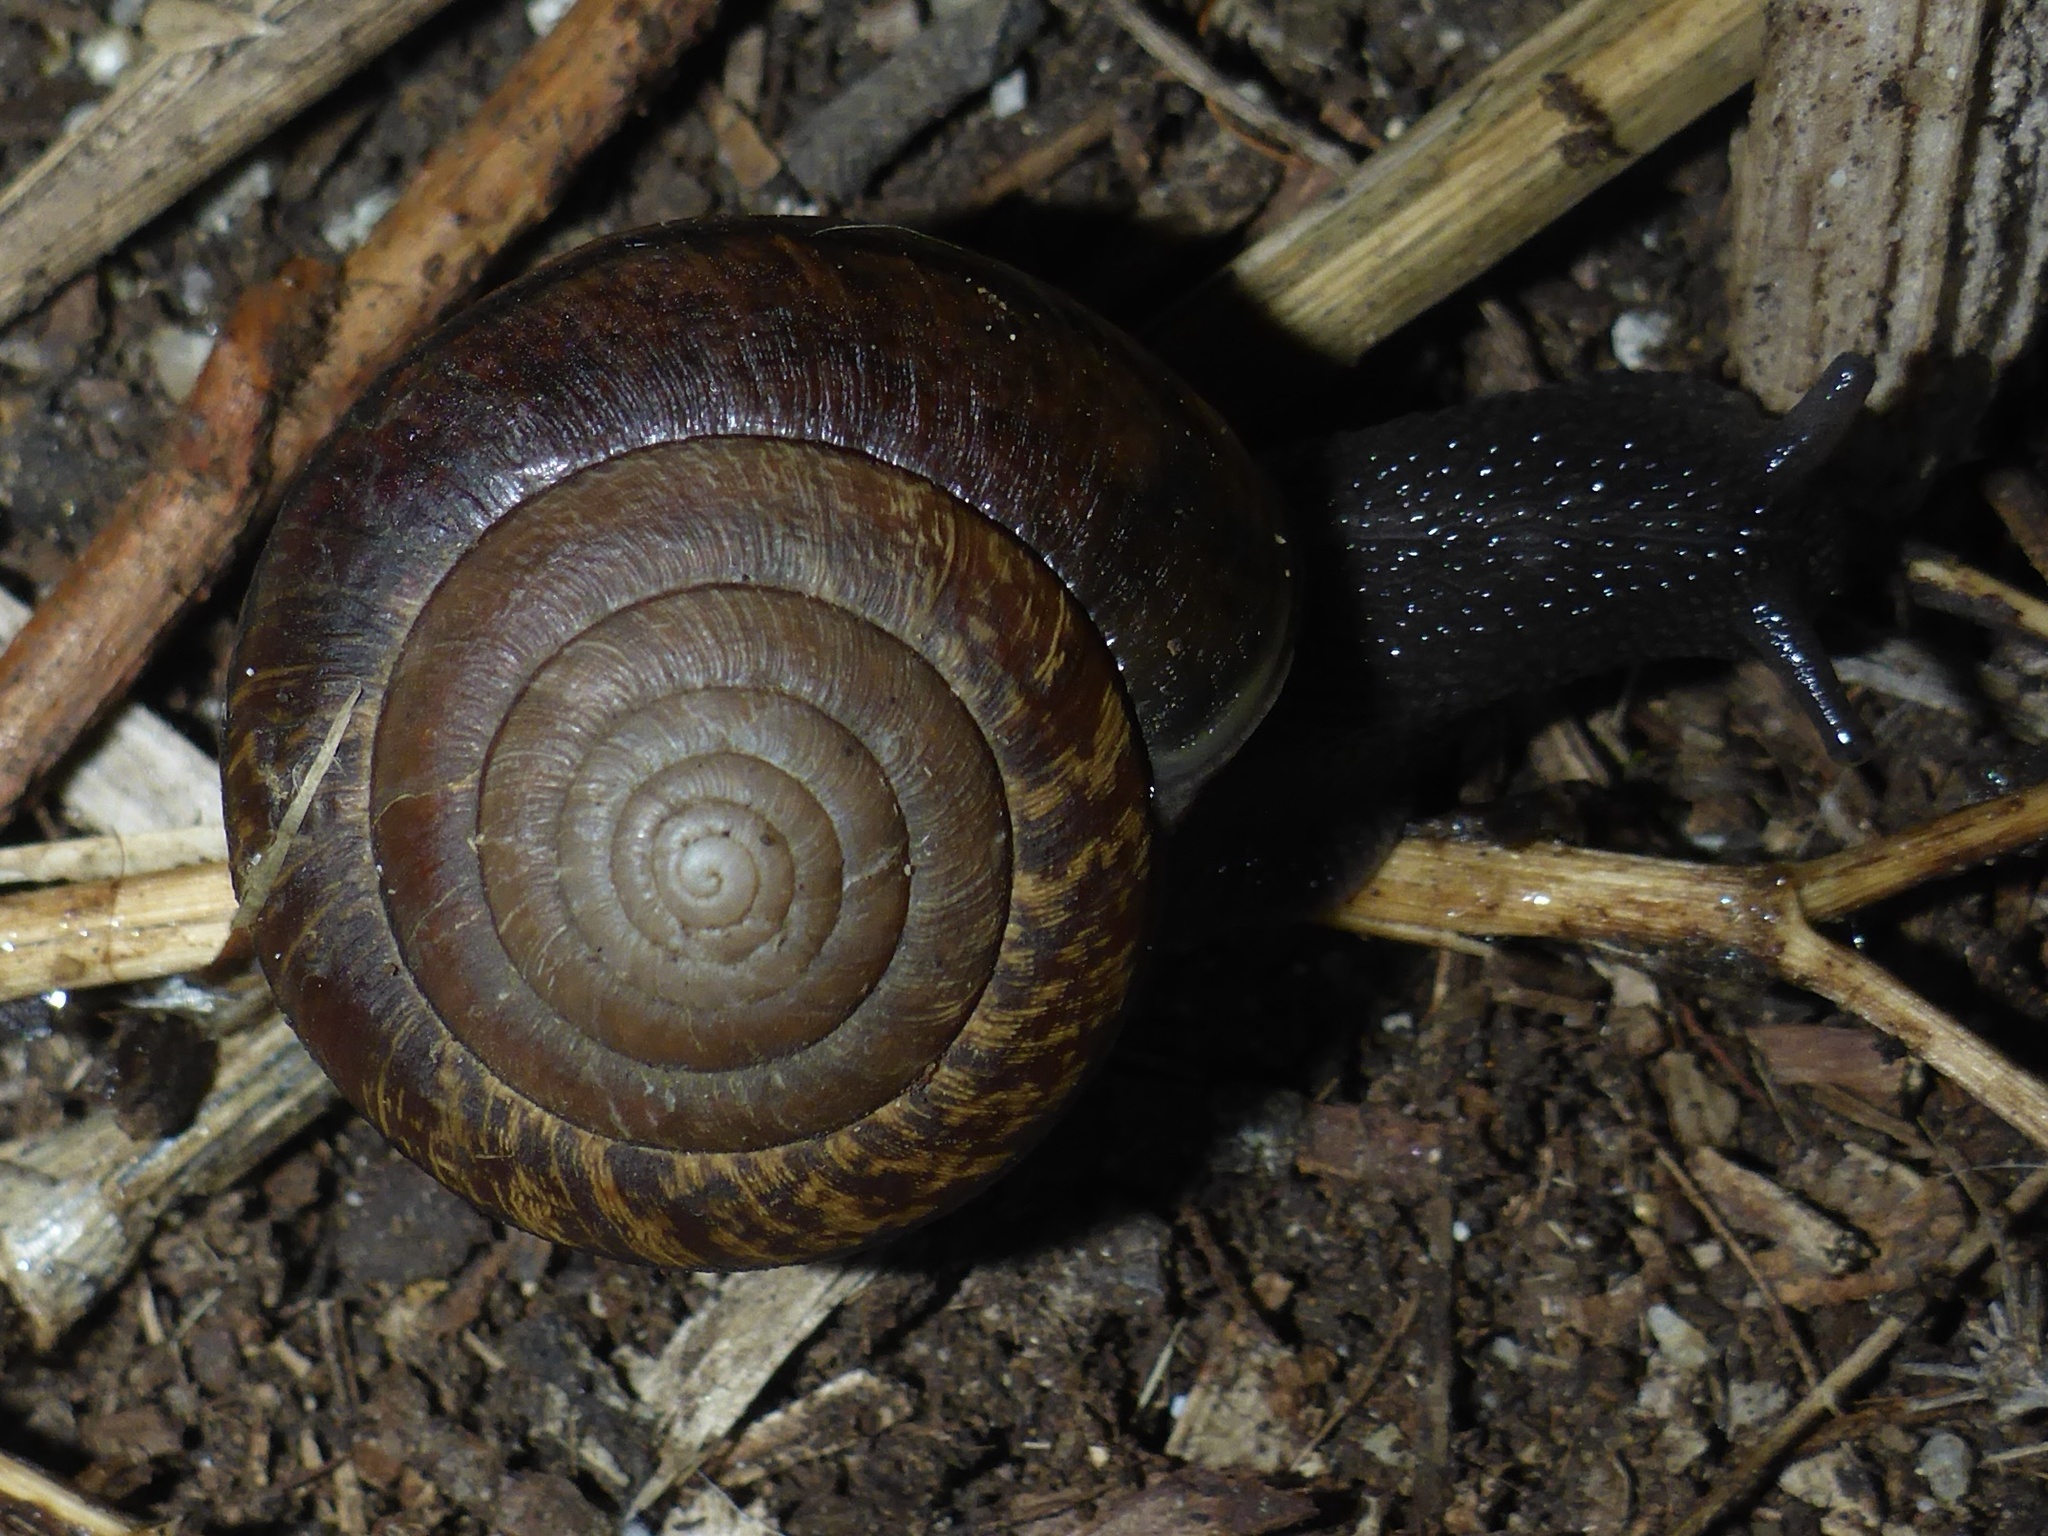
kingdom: Animalia
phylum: Mollusca
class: Gastropoda
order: Stylommatophora
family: Xanthonychidae
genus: Helminthoglypta
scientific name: Helminthoglypta arrosa
